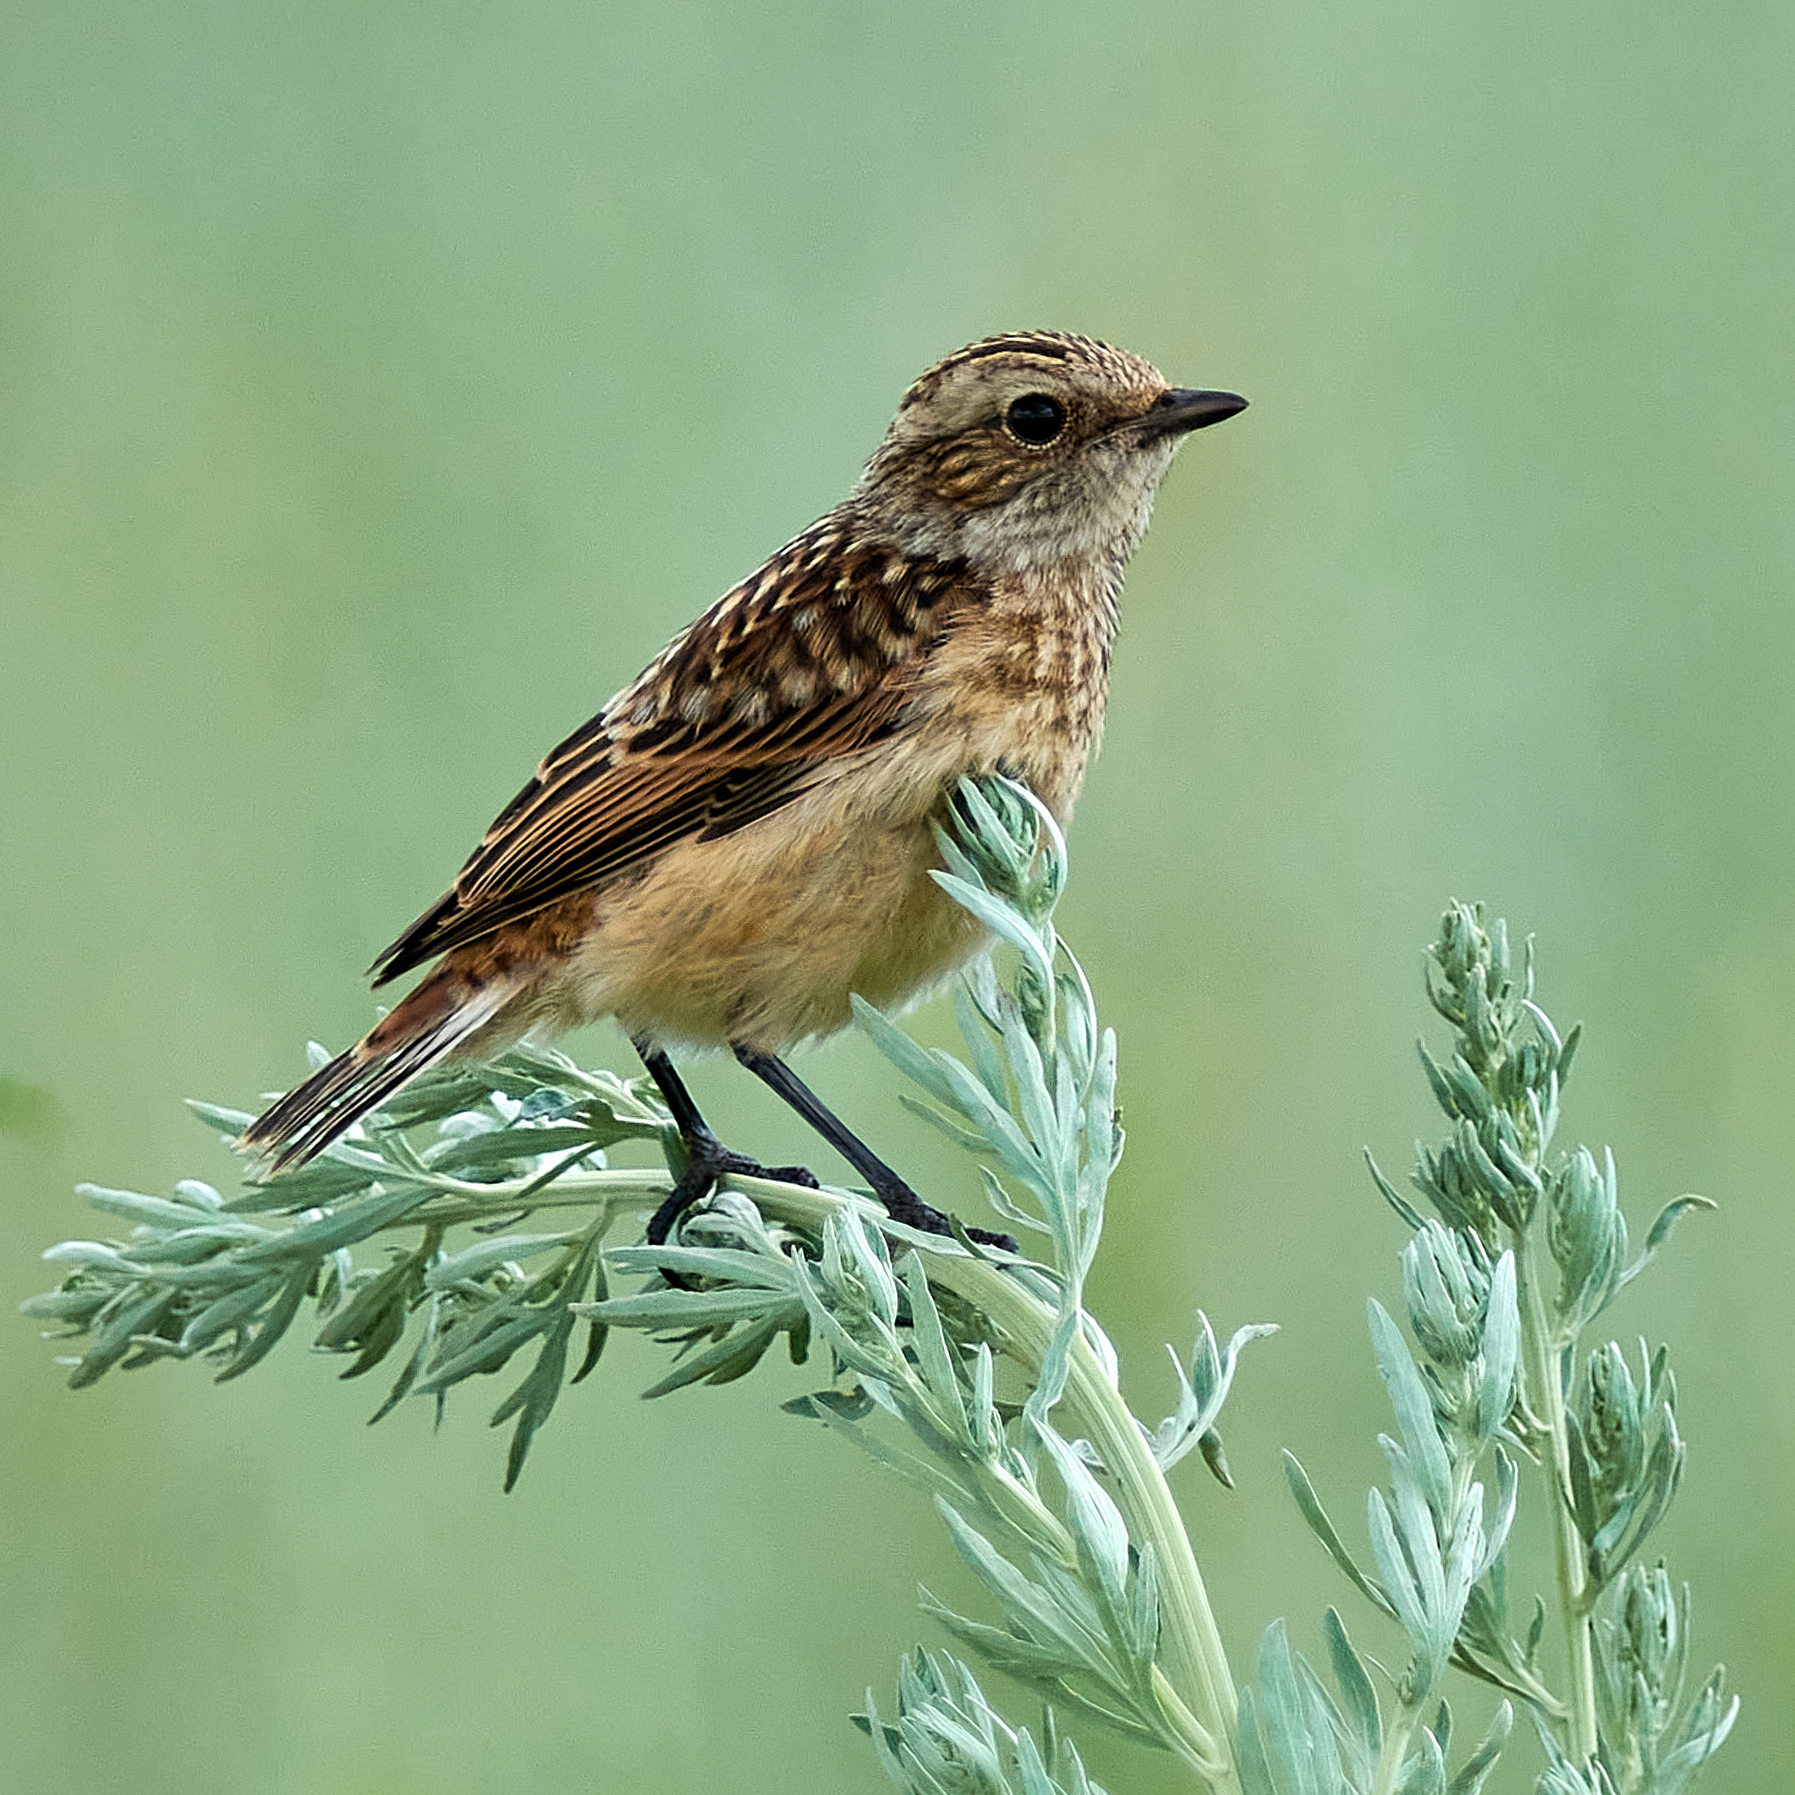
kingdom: Animalia
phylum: Chordata
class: Aves
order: Passeriformes
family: Muscicapidae
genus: Saxicola
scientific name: Saxicola rubetra
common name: Whinchat
